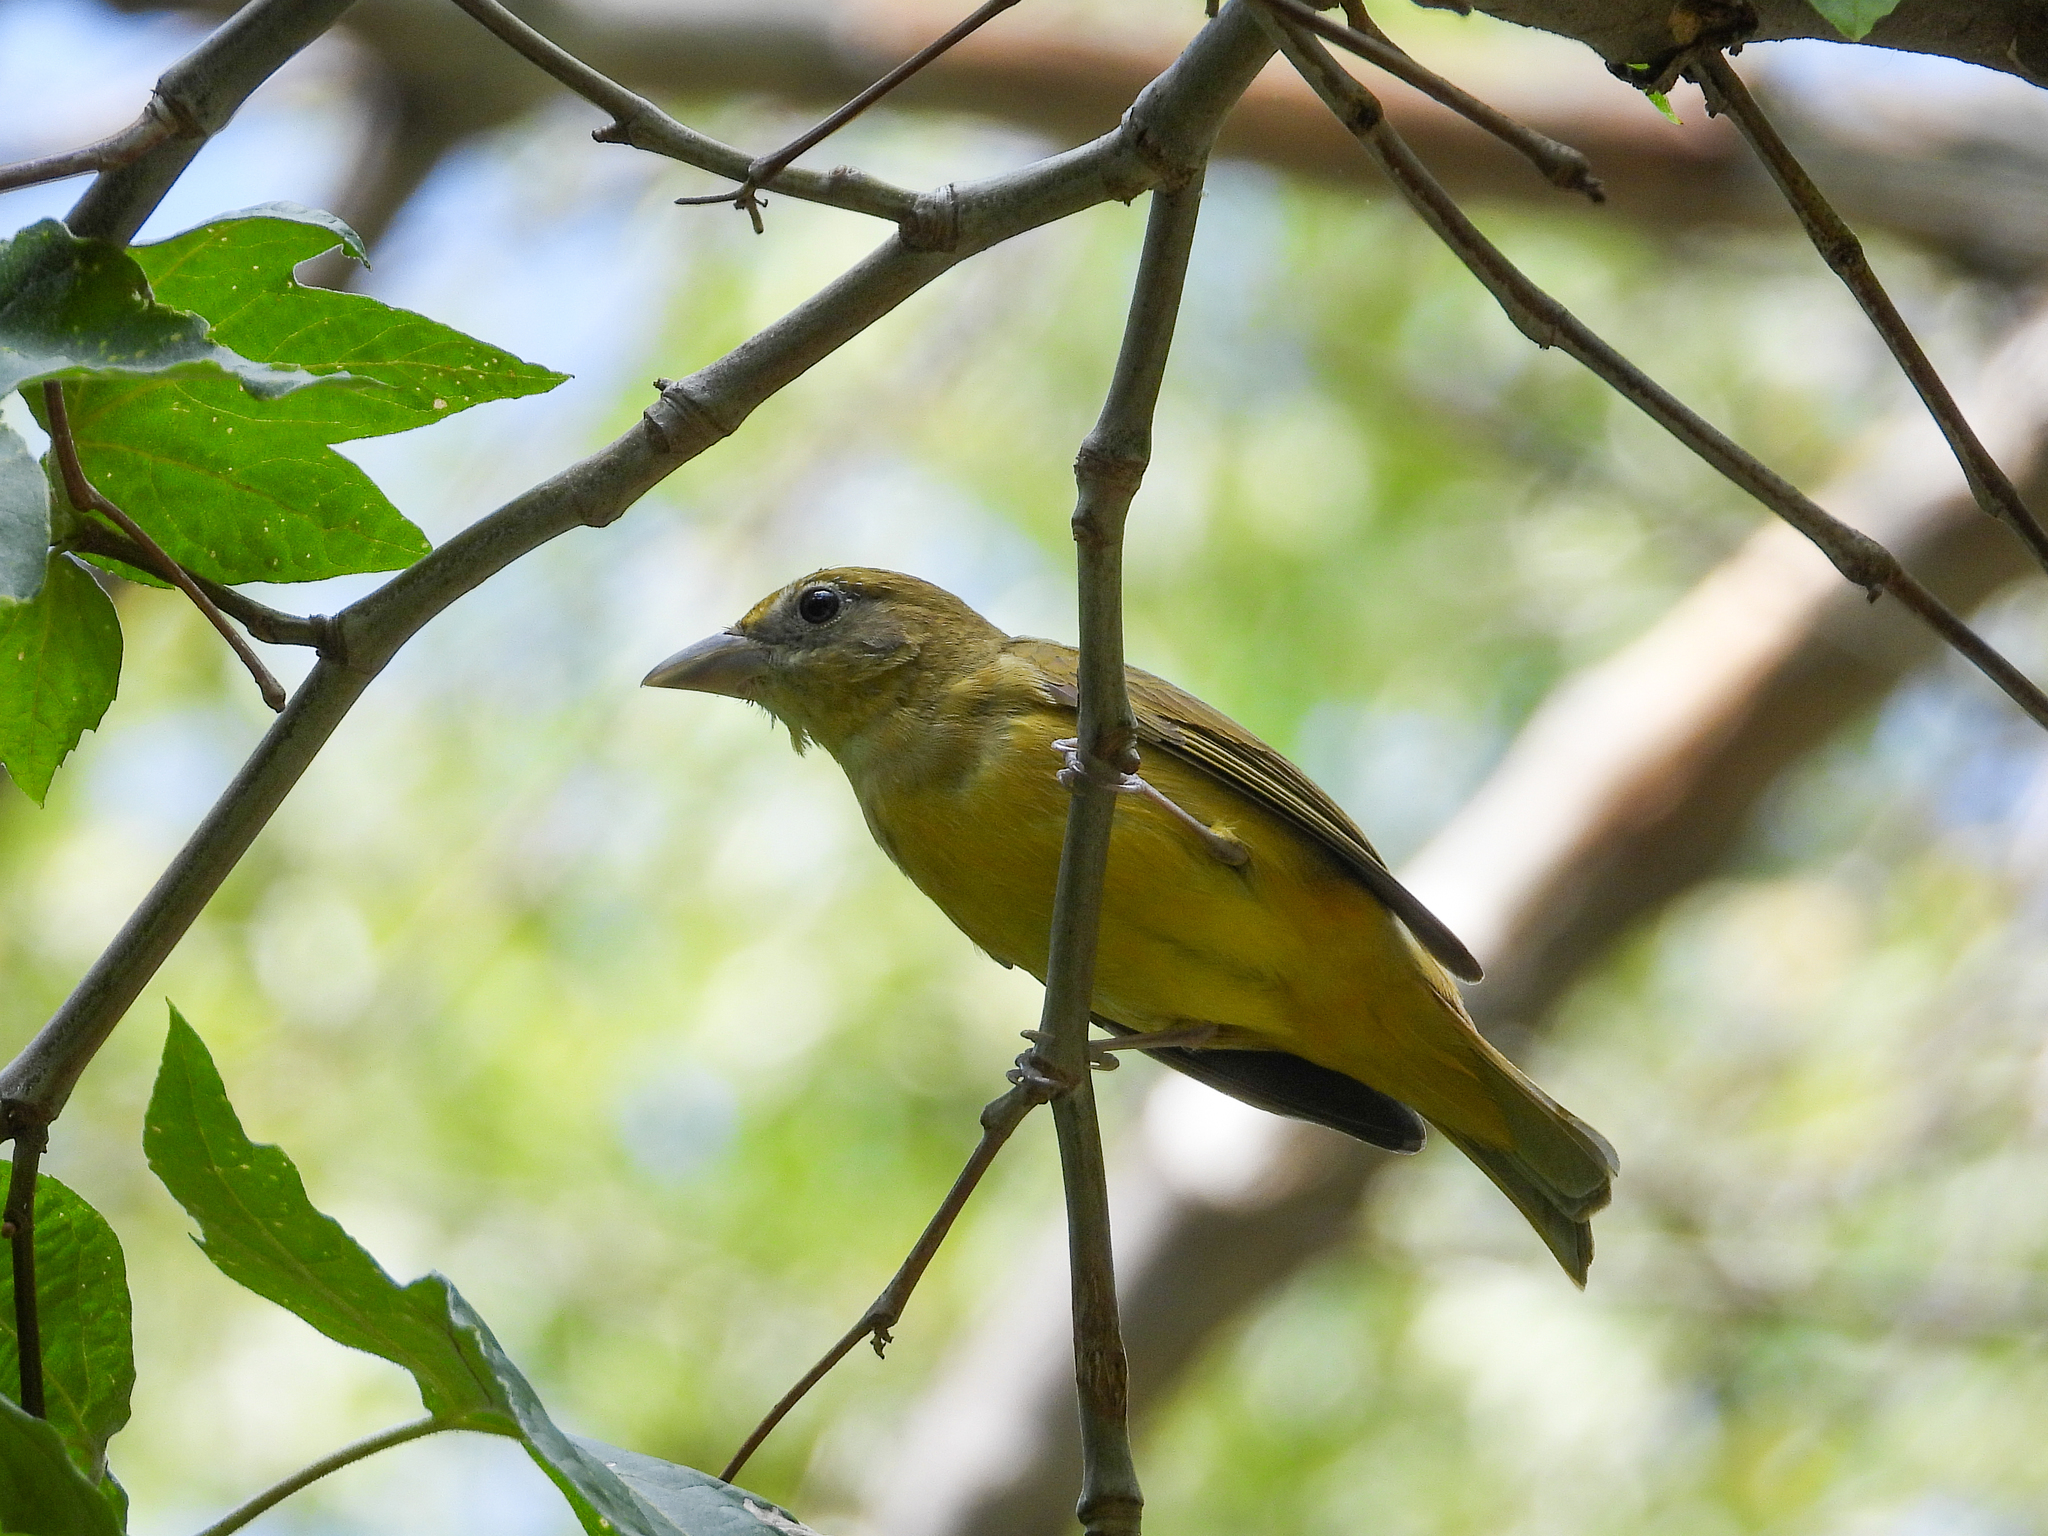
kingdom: Animalia
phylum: Chordata
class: Aves
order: Passeriformes
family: Cardinalidae
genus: Piranga
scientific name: Piranga rubra
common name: Summer tanager
